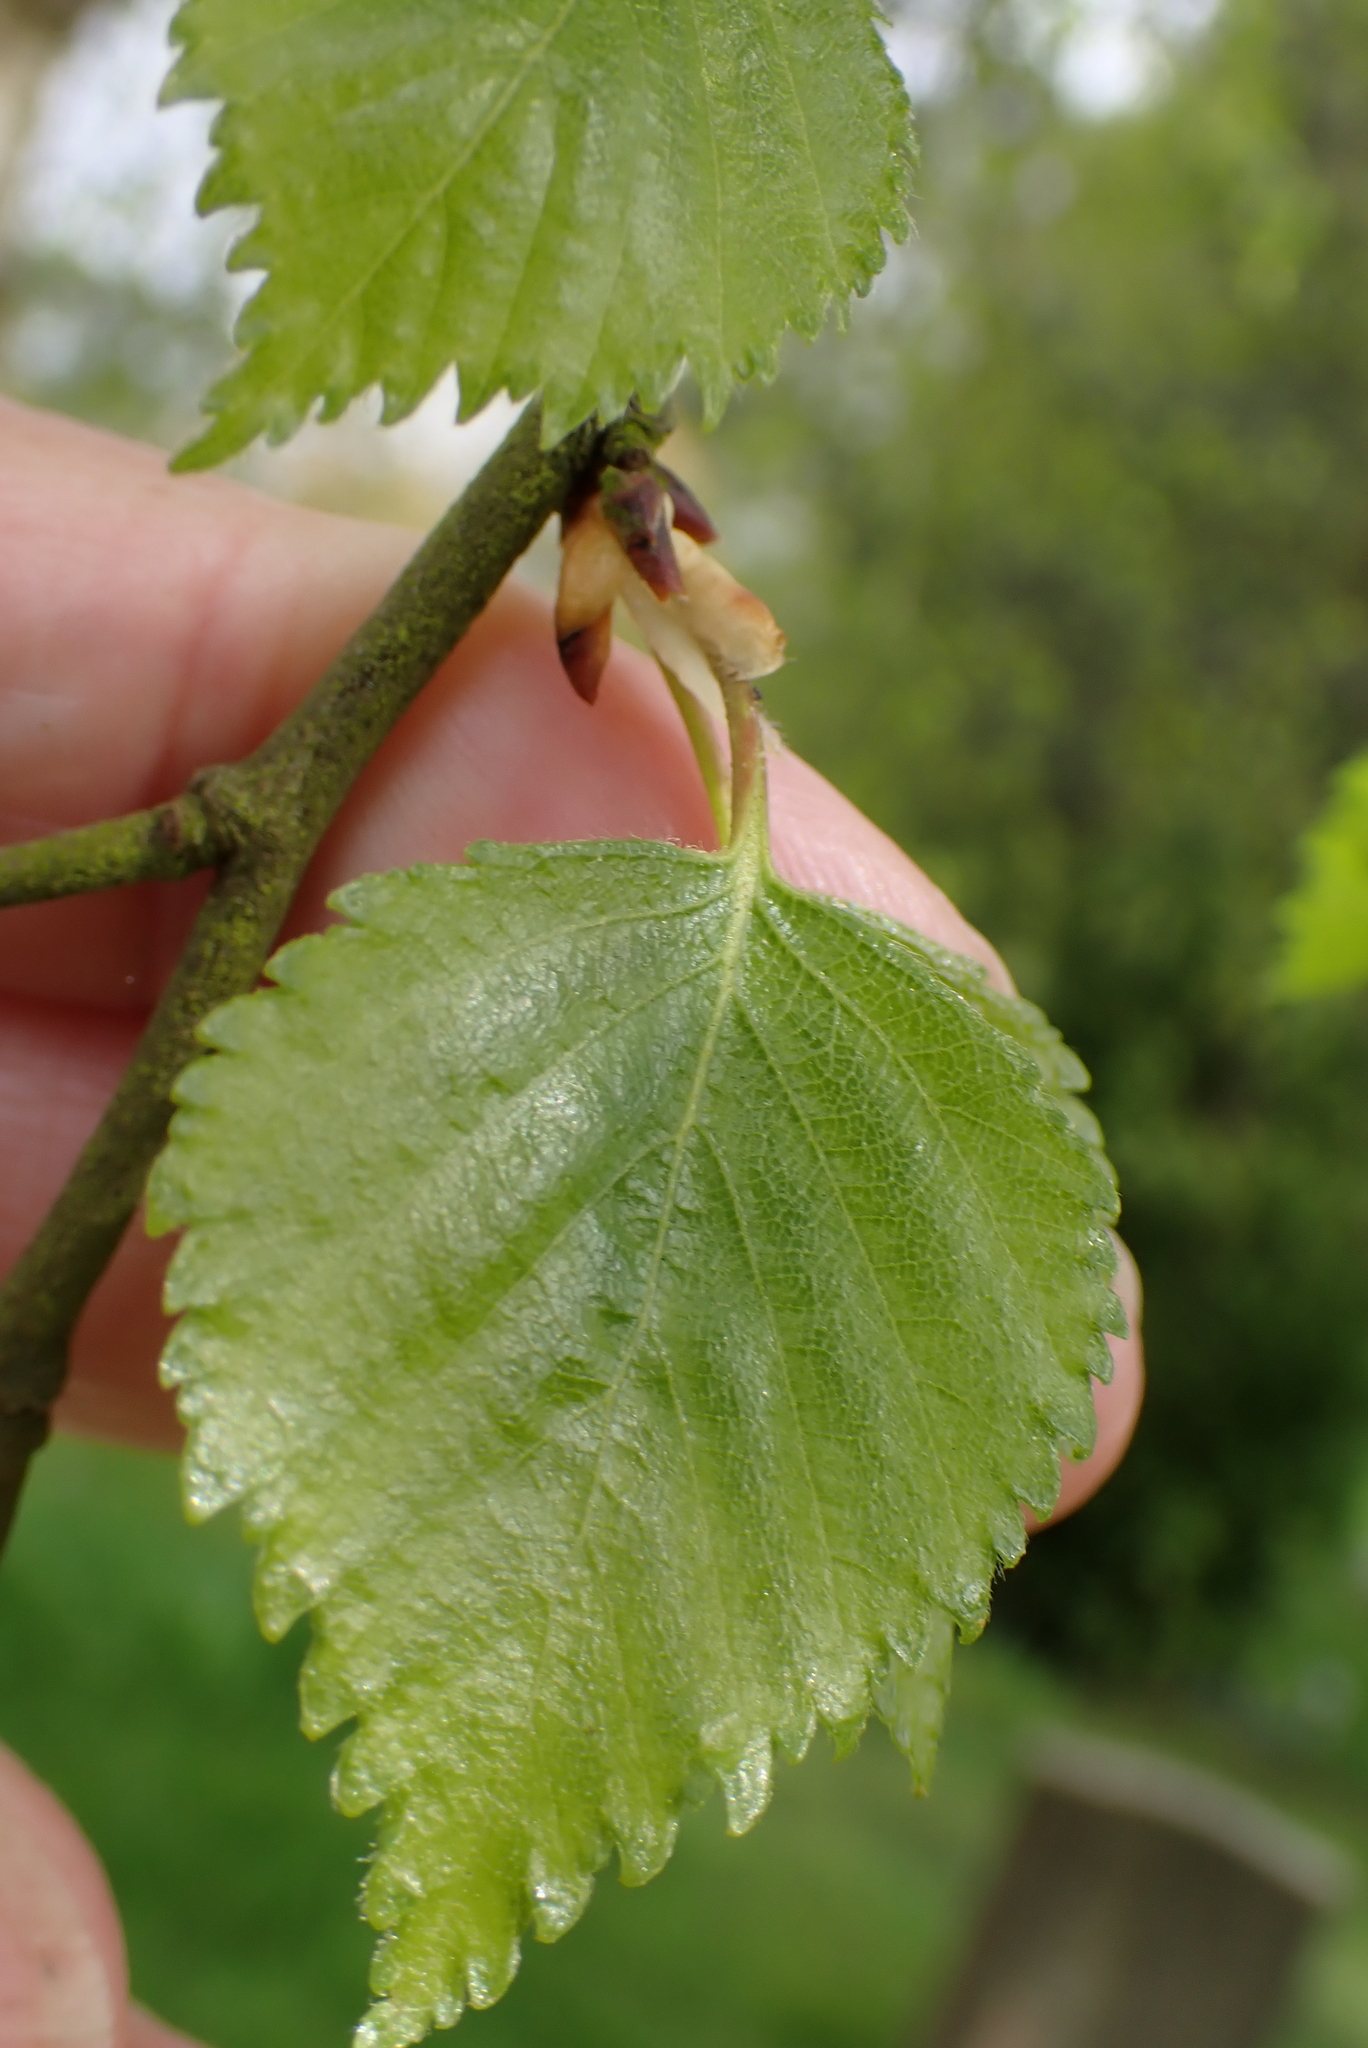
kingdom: Plantae
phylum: Tracheophyta
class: Magnoliopsida
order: Fagales
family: Betulaceae
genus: Betula
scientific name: Betula pendula
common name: Silver birch
